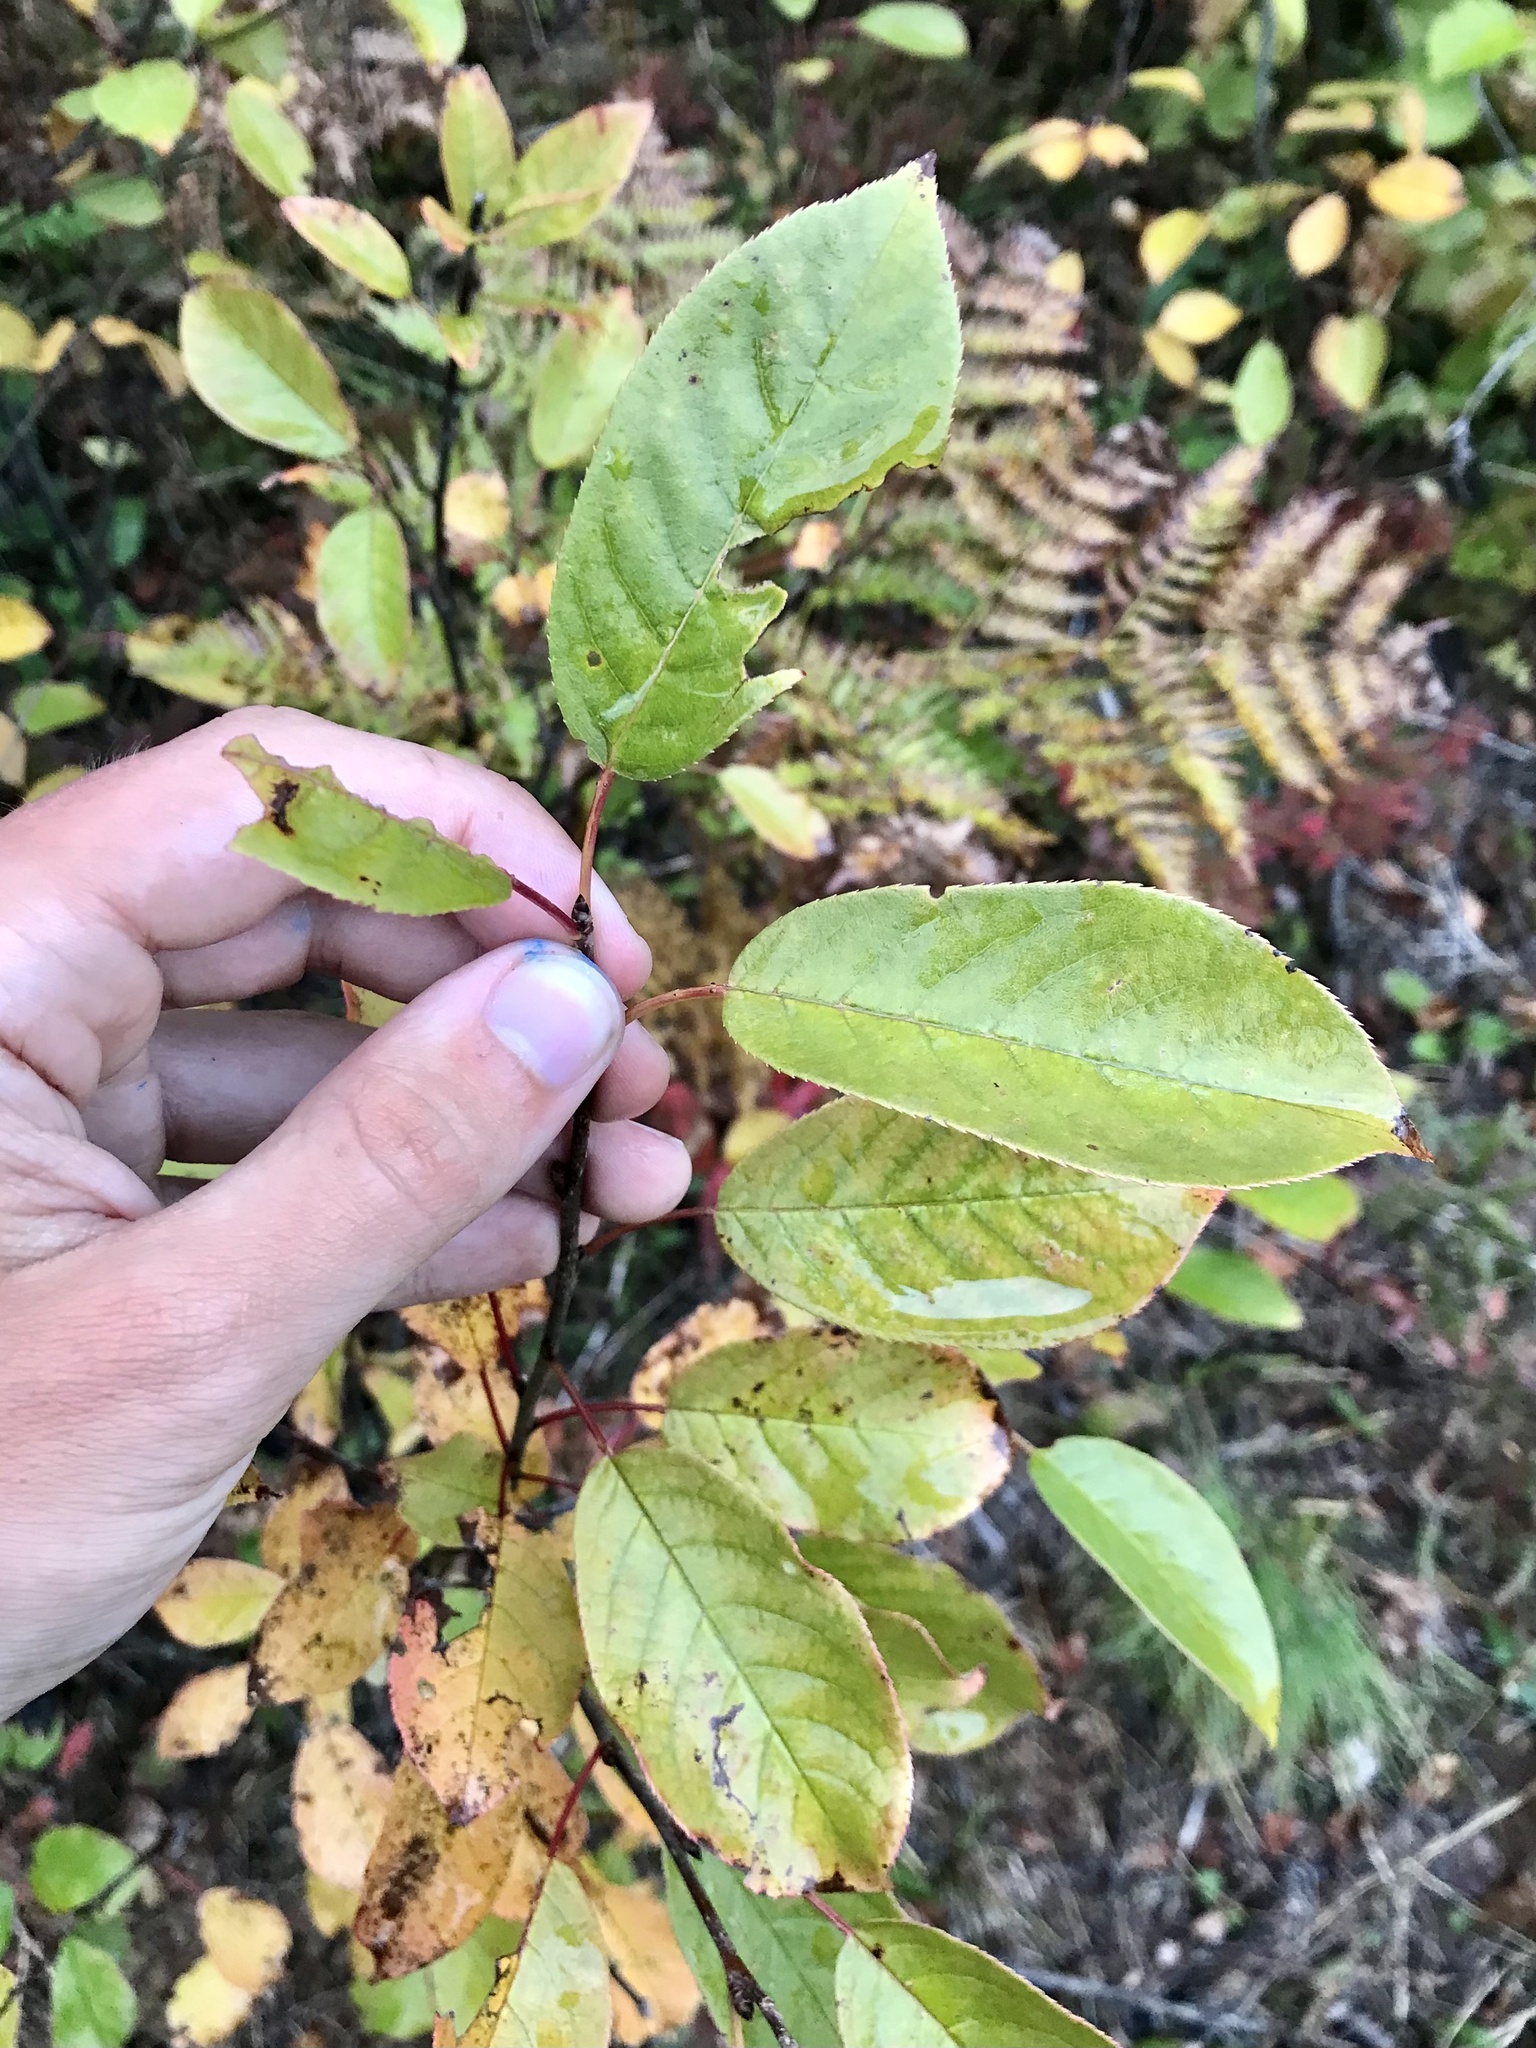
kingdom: Plantae
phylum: Tracheophyta
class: Magnoliopsida
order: Rosales
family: Rosaceae
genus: Prunus
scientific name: Prunus virginiana
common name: Chokecherry
